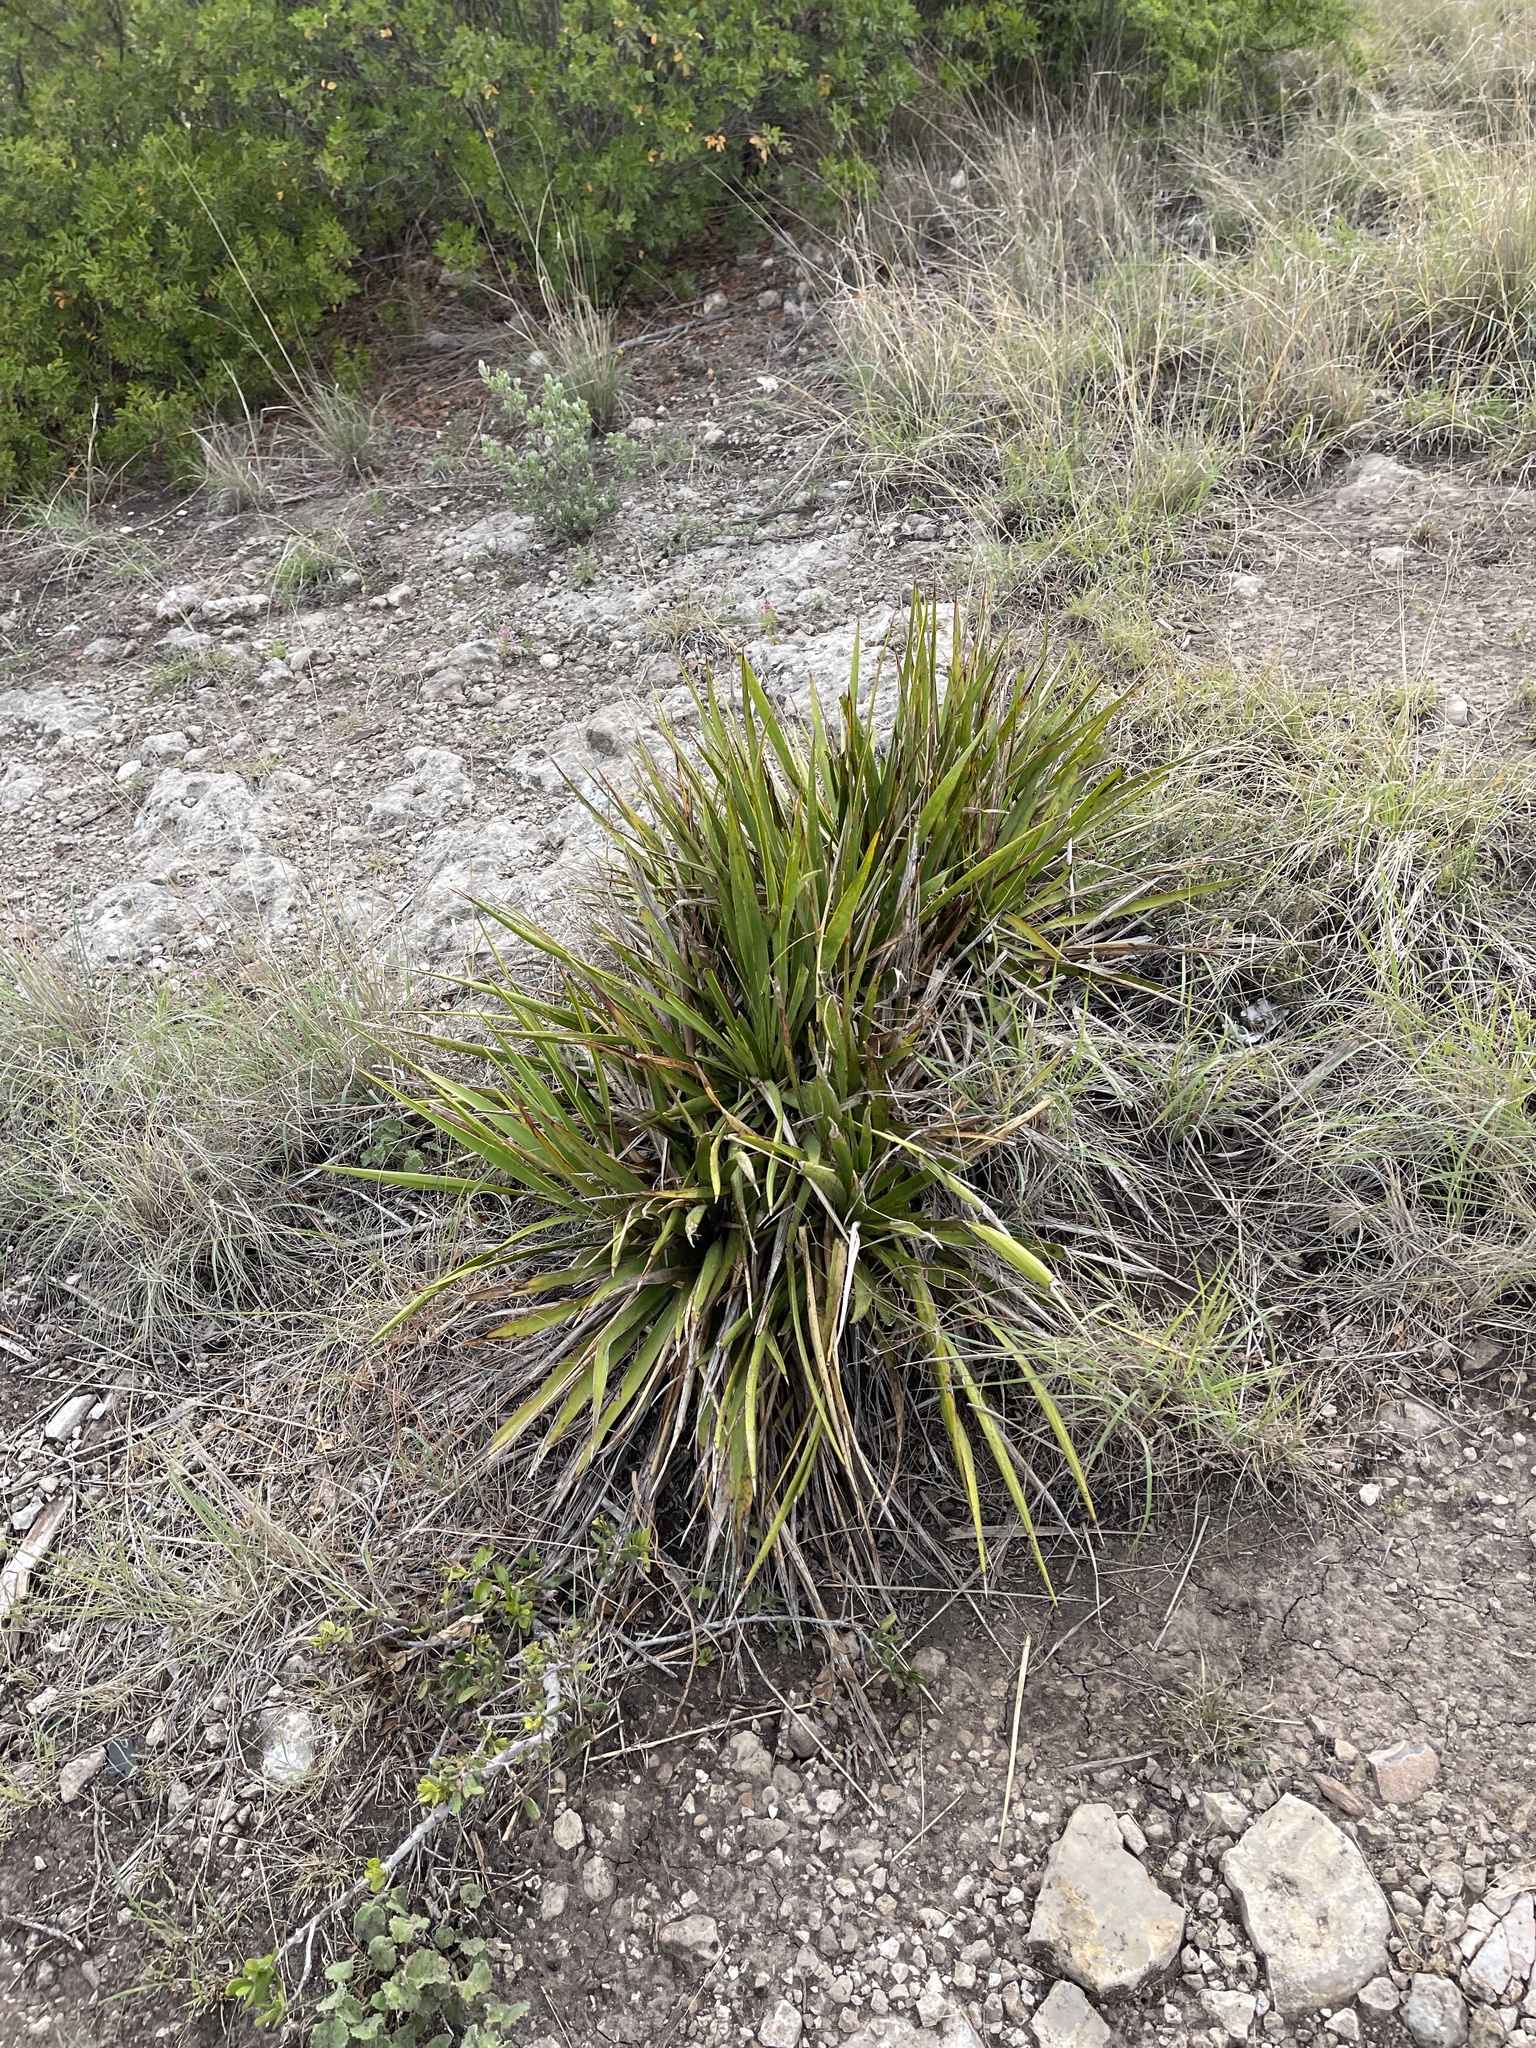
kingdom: Plantae
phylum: Tracheophyta
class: Liliopsida
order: Asparagales
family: Asparagaceae
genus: Yucca
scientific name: Yucca rupicola
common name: Twisted-leaf spanish-dagger
